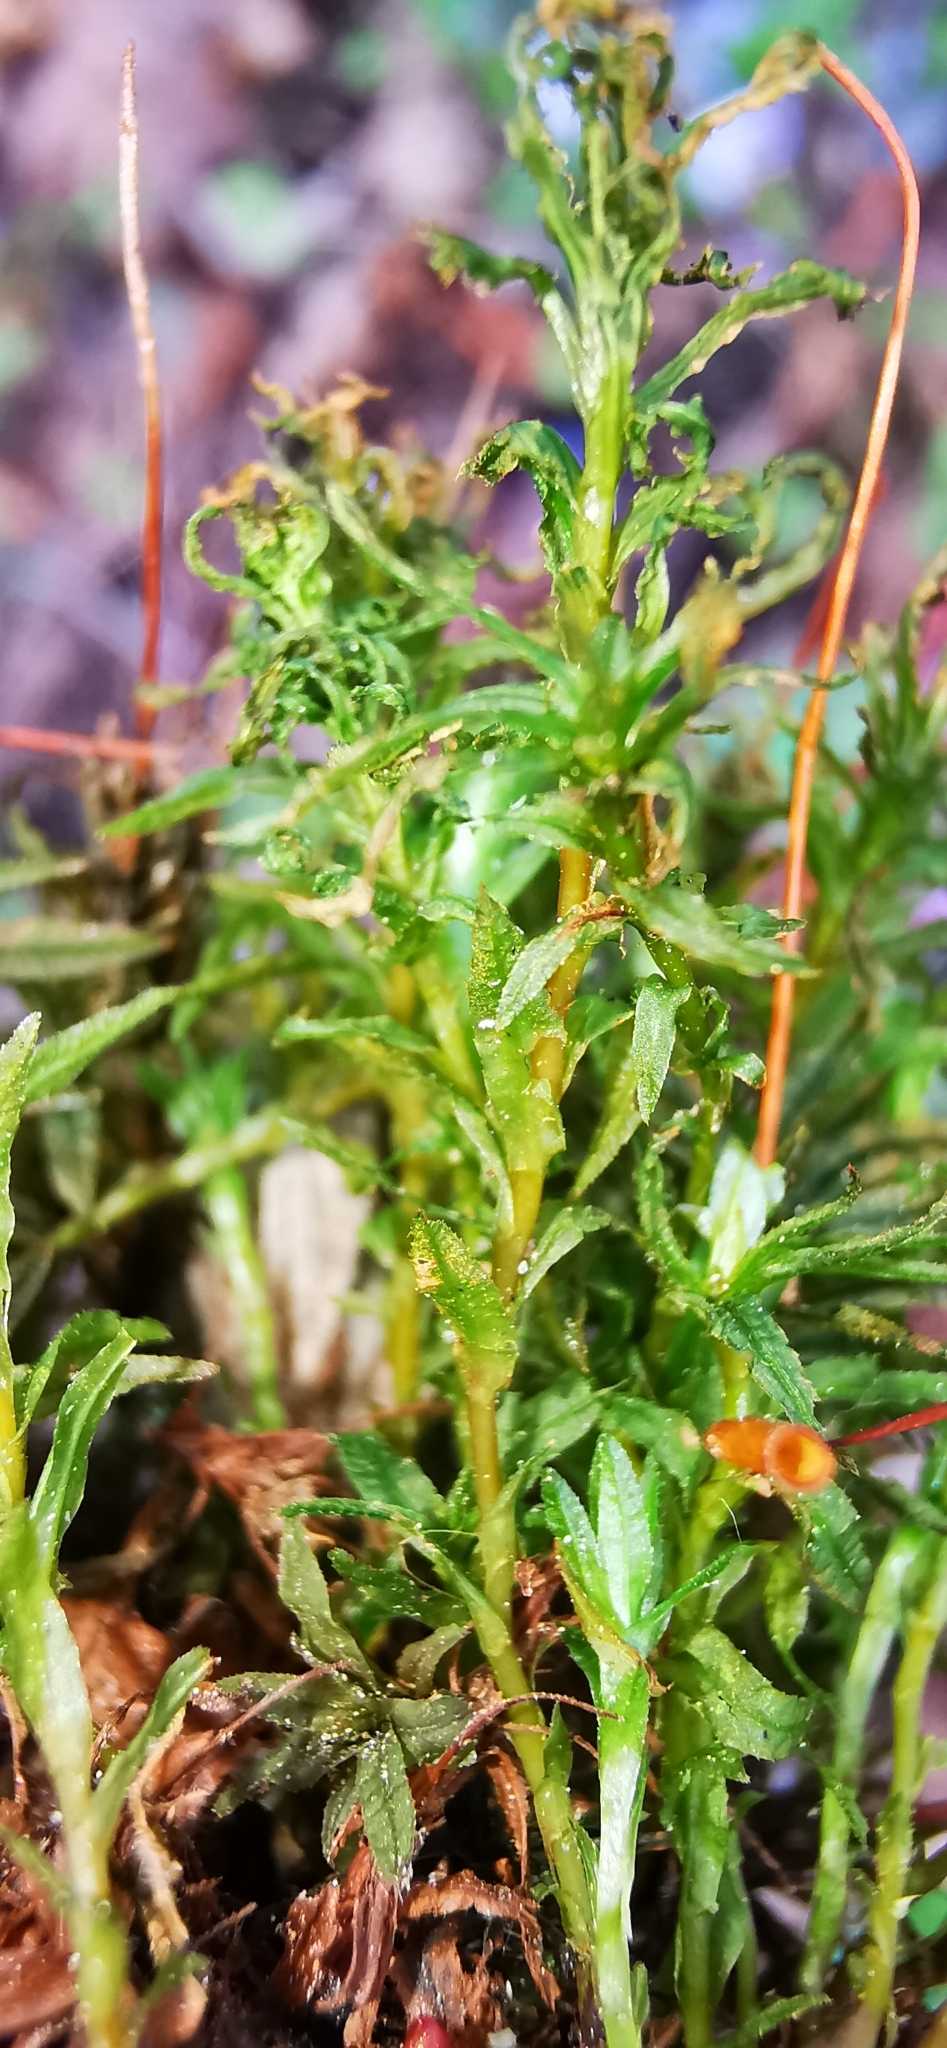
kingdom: Plantae
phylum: Bryophyta
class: Polytrichopsida
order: Polytrichales
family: Polytrichaceae
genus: Atrichum
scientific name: Atrichum undulatum
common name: Common smoothcap
